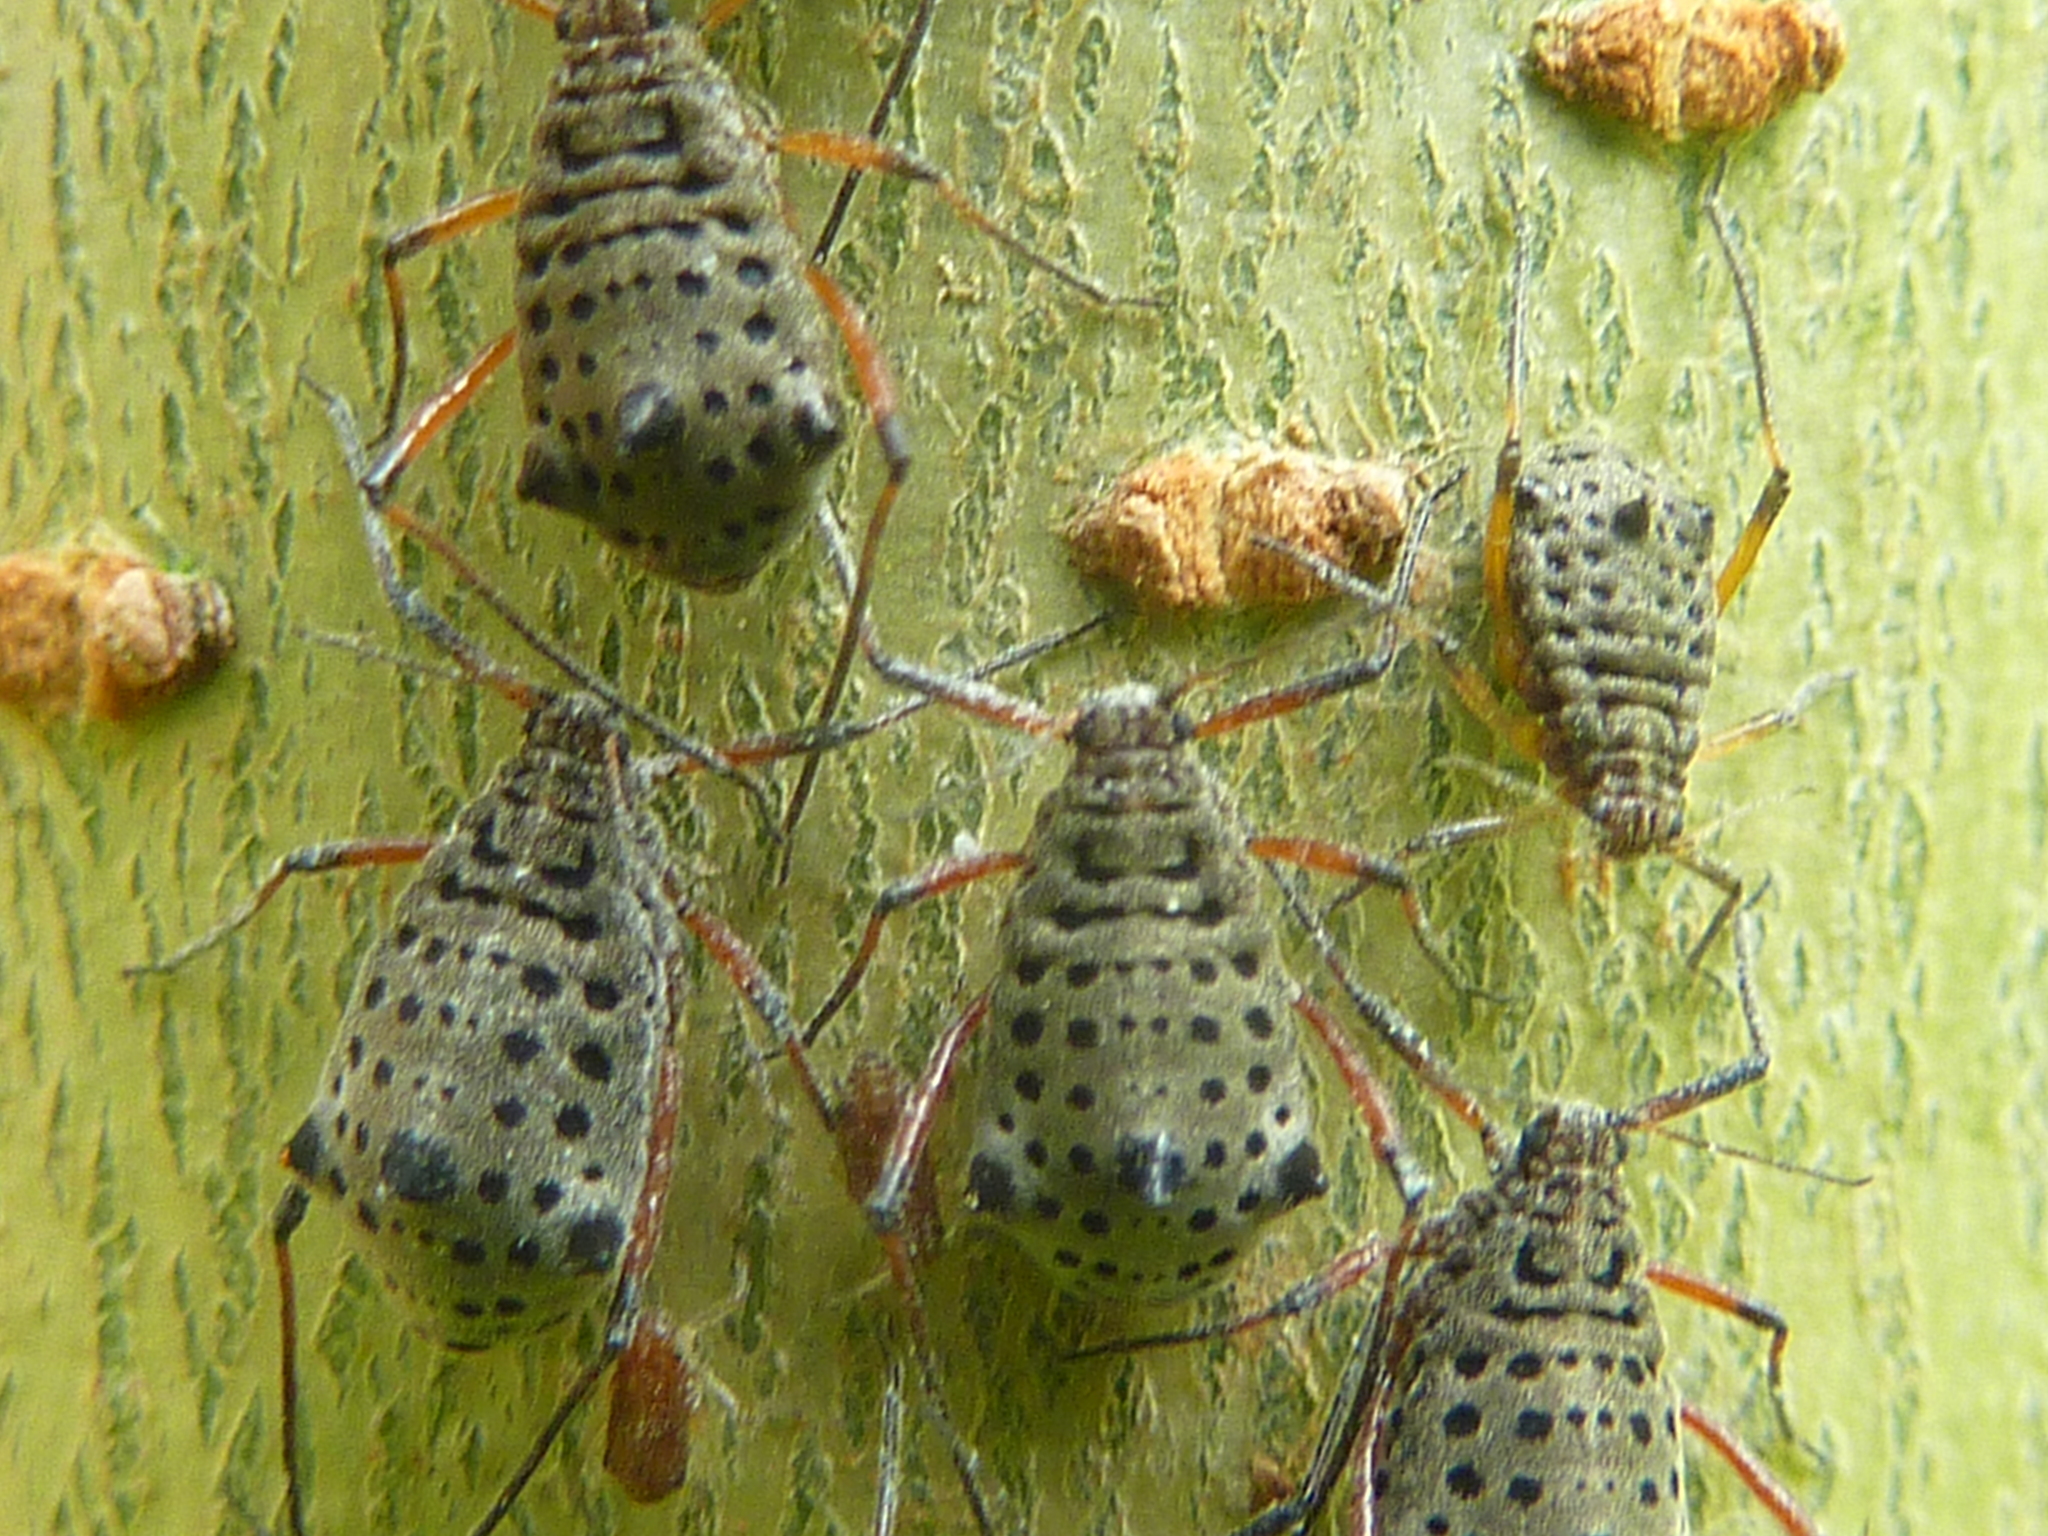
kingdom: Animalia
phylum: Arthropoda
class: Insecta
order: Hemiptera
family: Aphididae
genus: Tuberolachnus
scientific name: Tuberolachnus salignus
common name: Giant willow aphid
